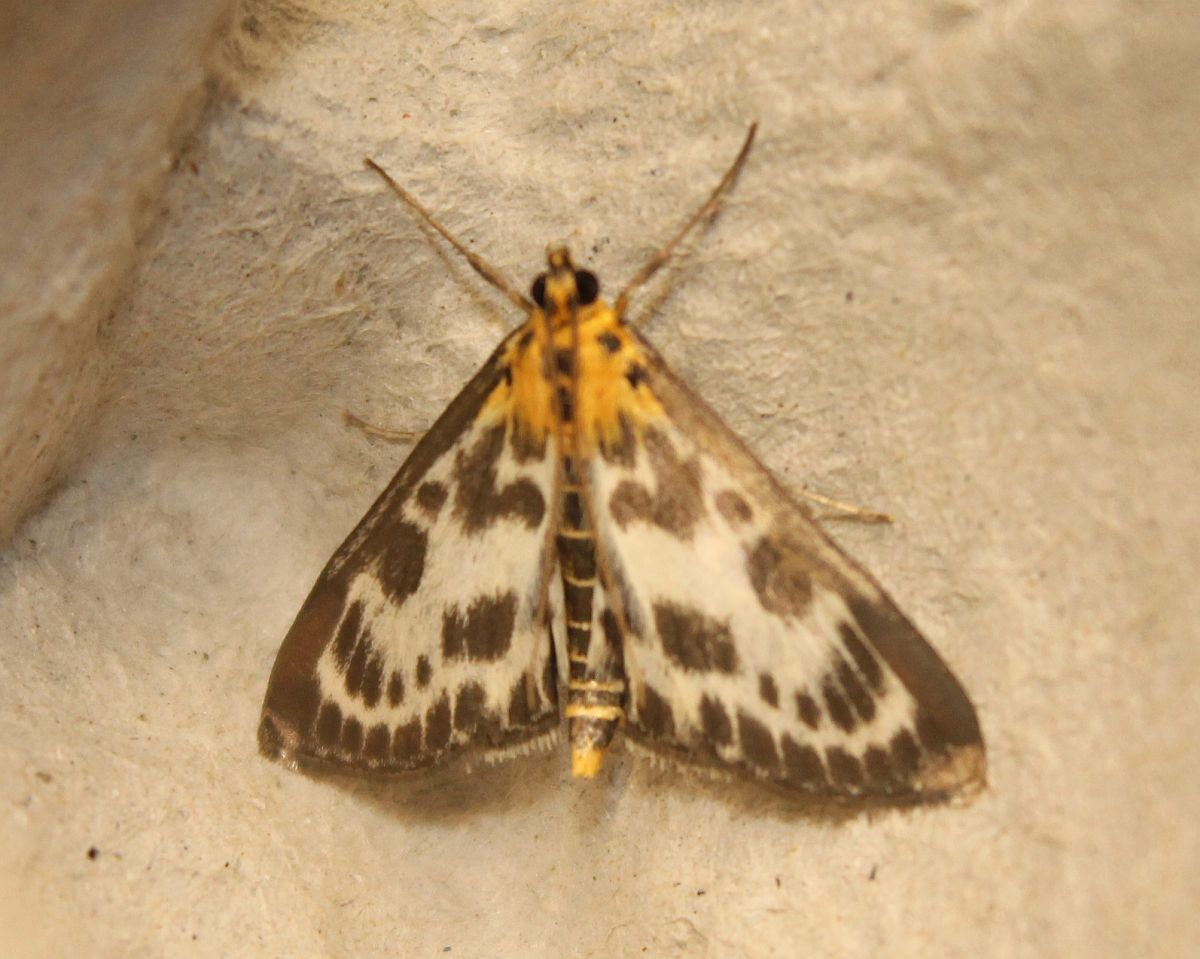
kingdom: Animalia
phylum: Arthropoda
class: Insecta
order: Lepidoptera
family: Crambidae
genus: Anania
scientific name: Anania hortulata
